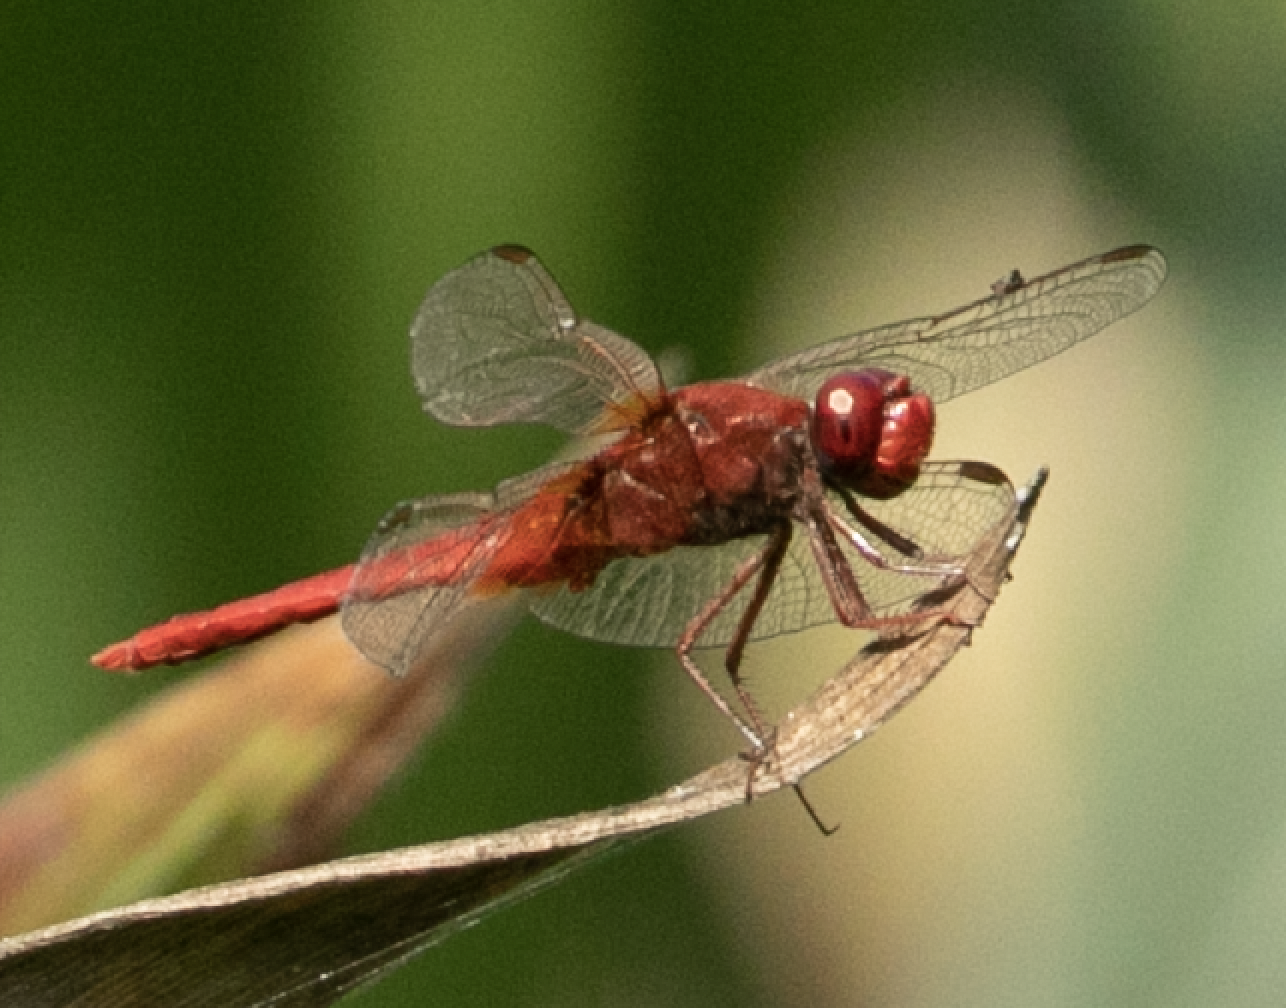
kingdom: Animalia
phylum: Arthropoda
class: Insecta
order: Odonata
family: Libellulidae
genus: Crocothemis
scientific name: Crocothemis erythraea
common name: Scarlet dragonfly
